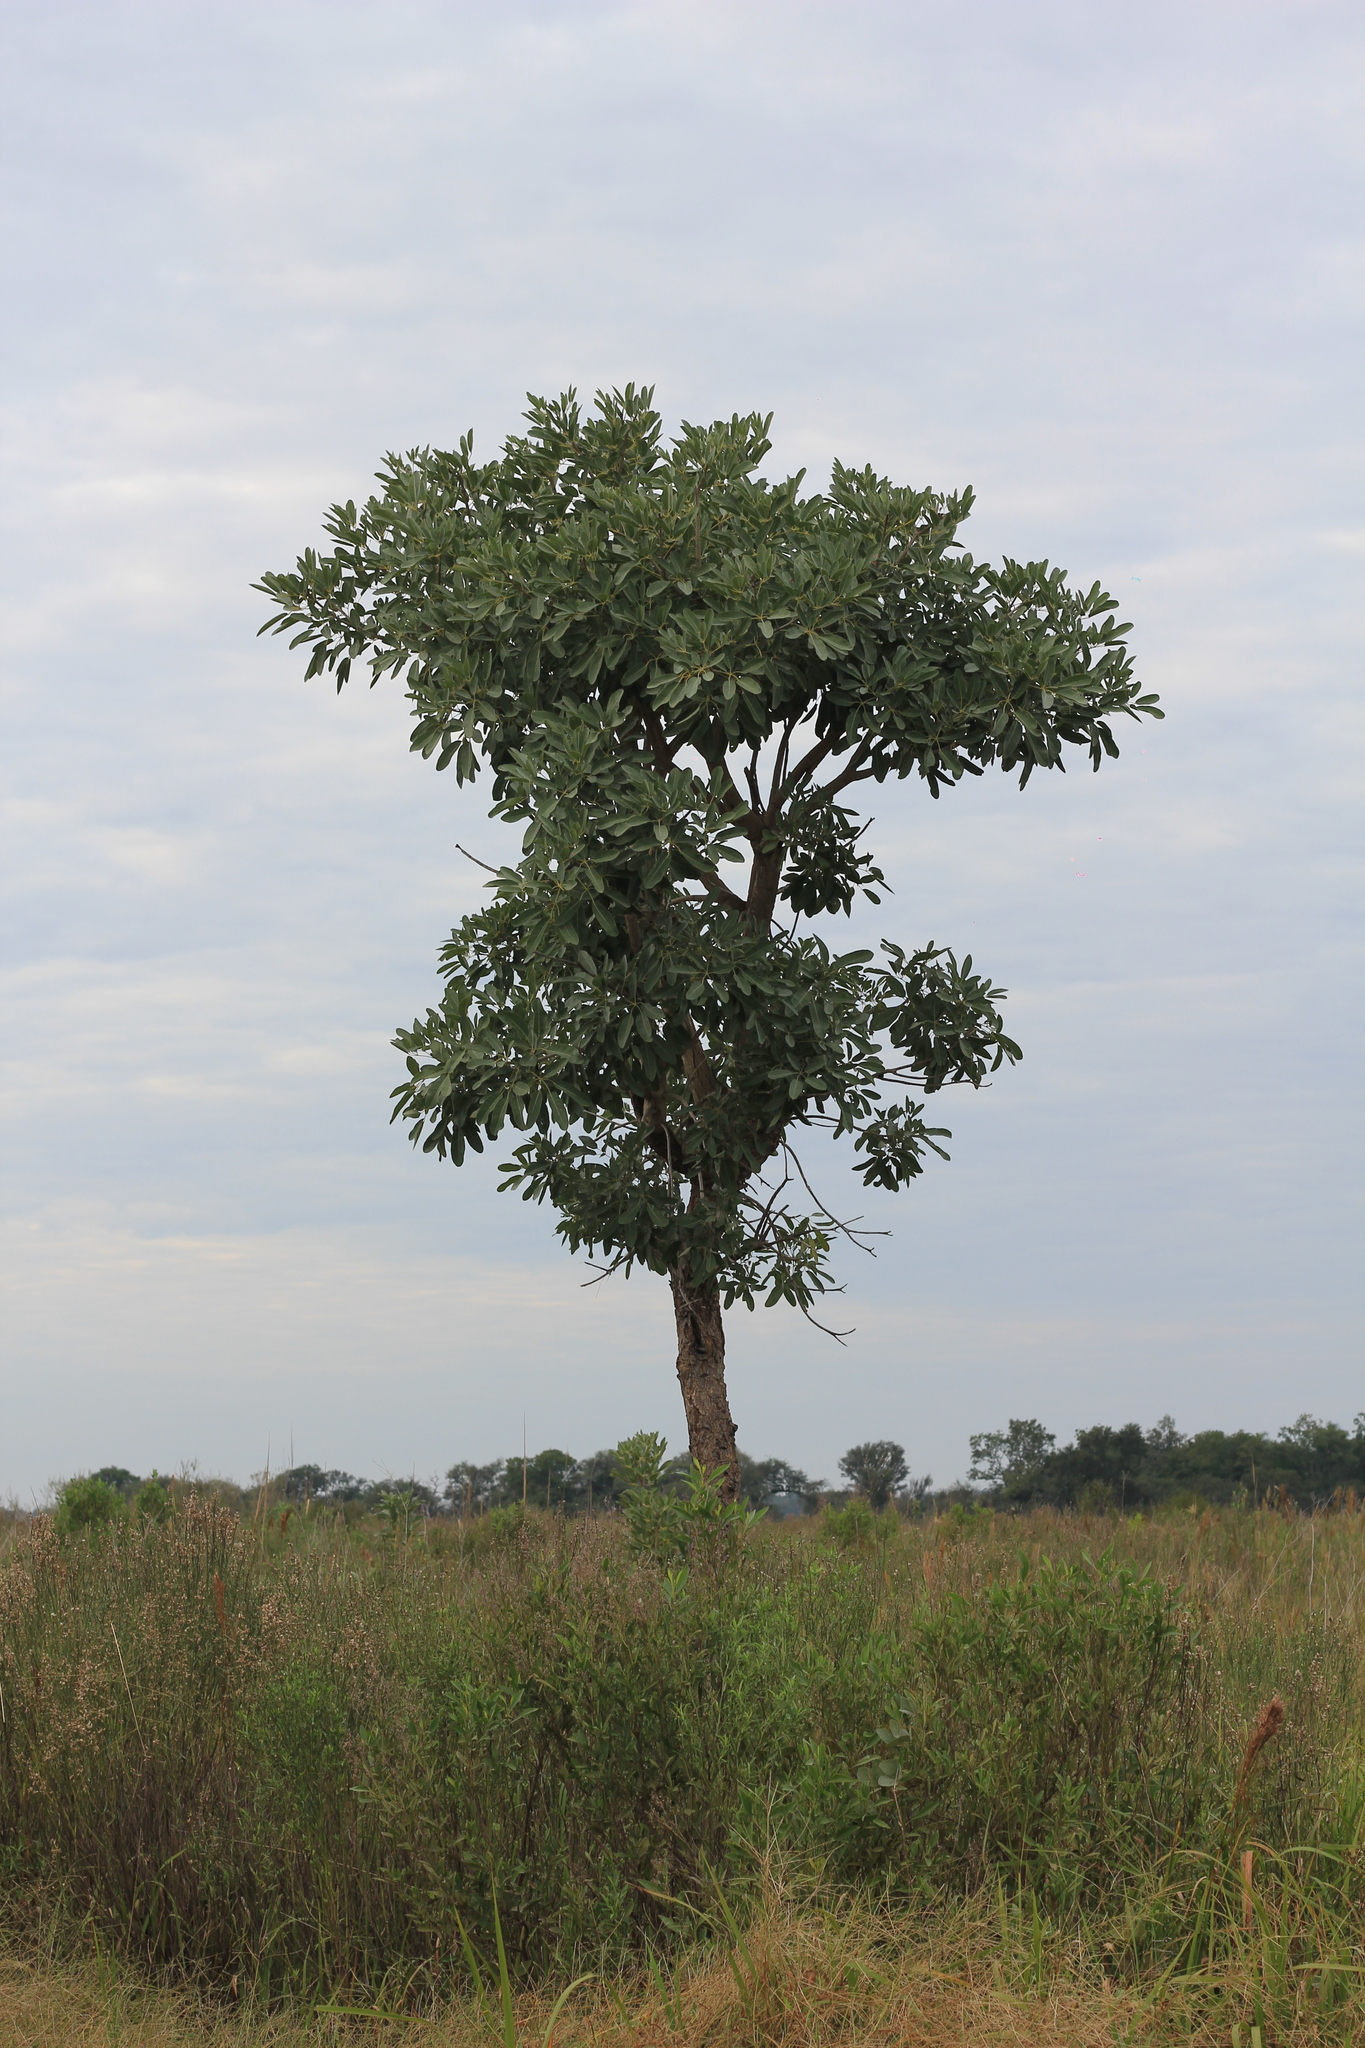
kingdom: Plantae
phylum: Tracheophyta
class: Magnoliopsida
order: Lamiales
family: Bignoniaceae
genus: Tabebuia
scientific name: Tabebuia aurea
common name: Caribbean trumpet-tree
